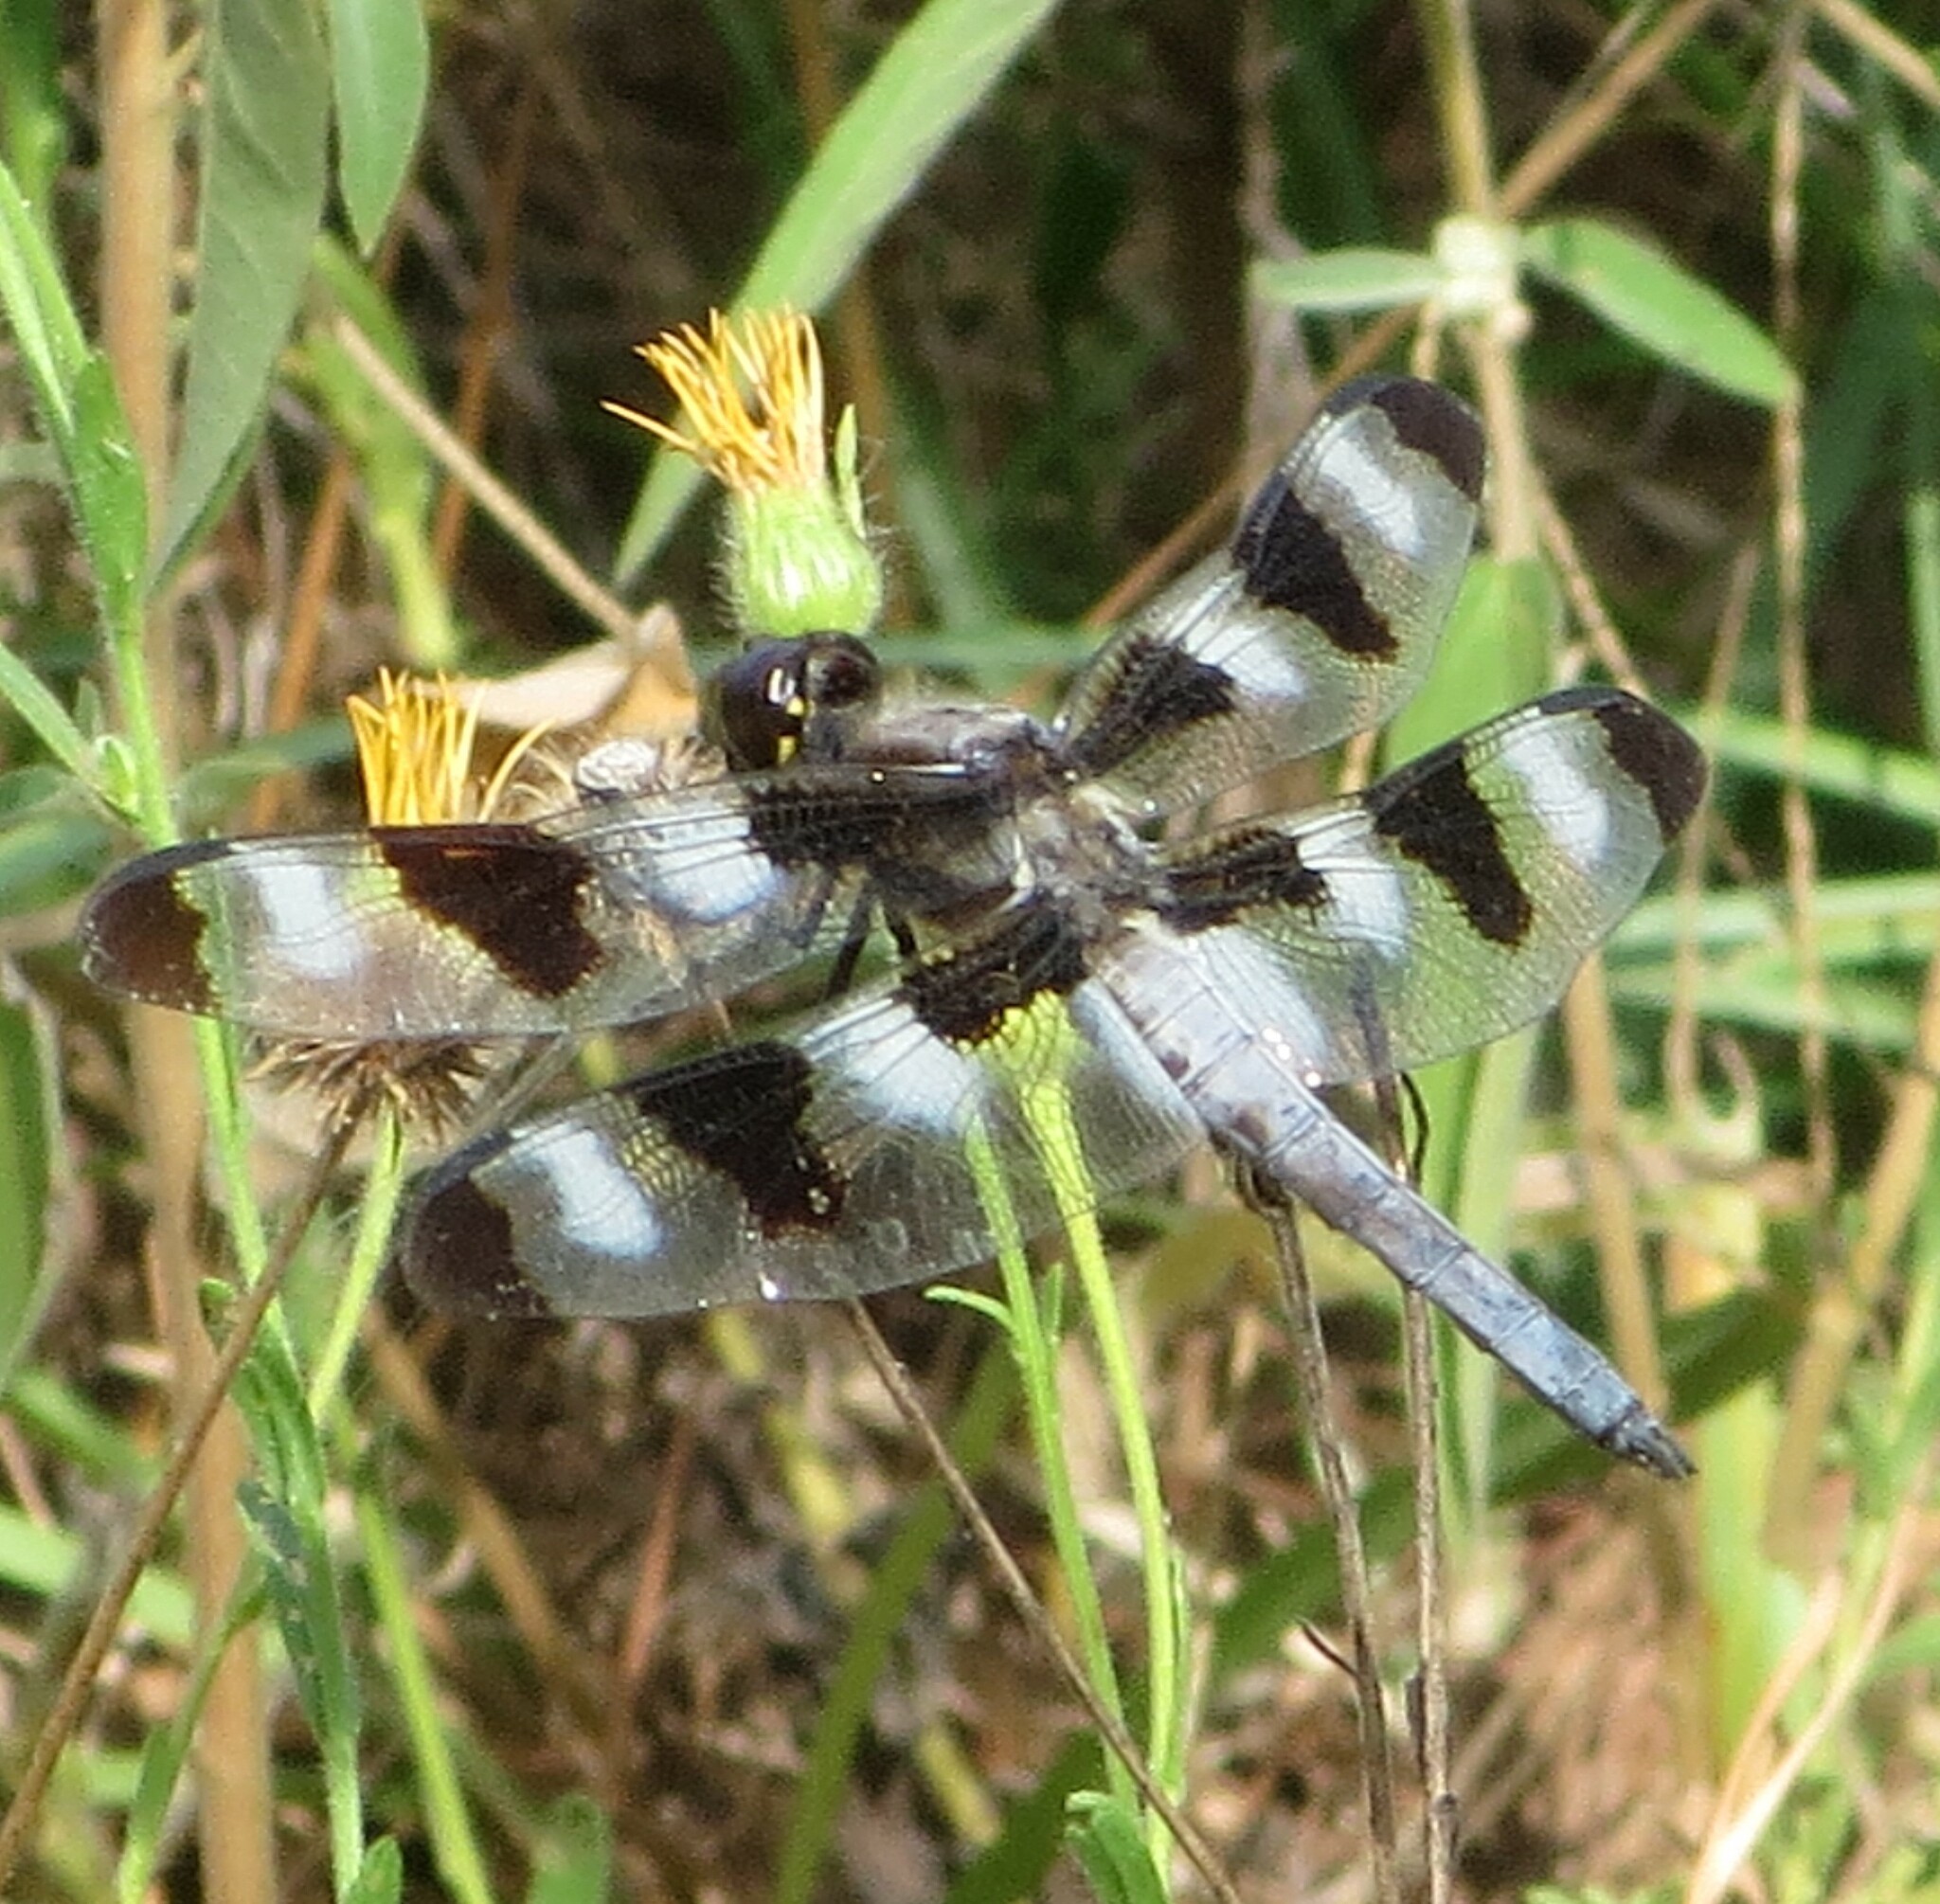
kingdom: Animalia
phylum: Arthropoda
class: Insecta
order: Odonata
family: Libellulidae
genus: Libellula
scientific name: Libellula pulchella
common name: Twelve-spotted skimmer
